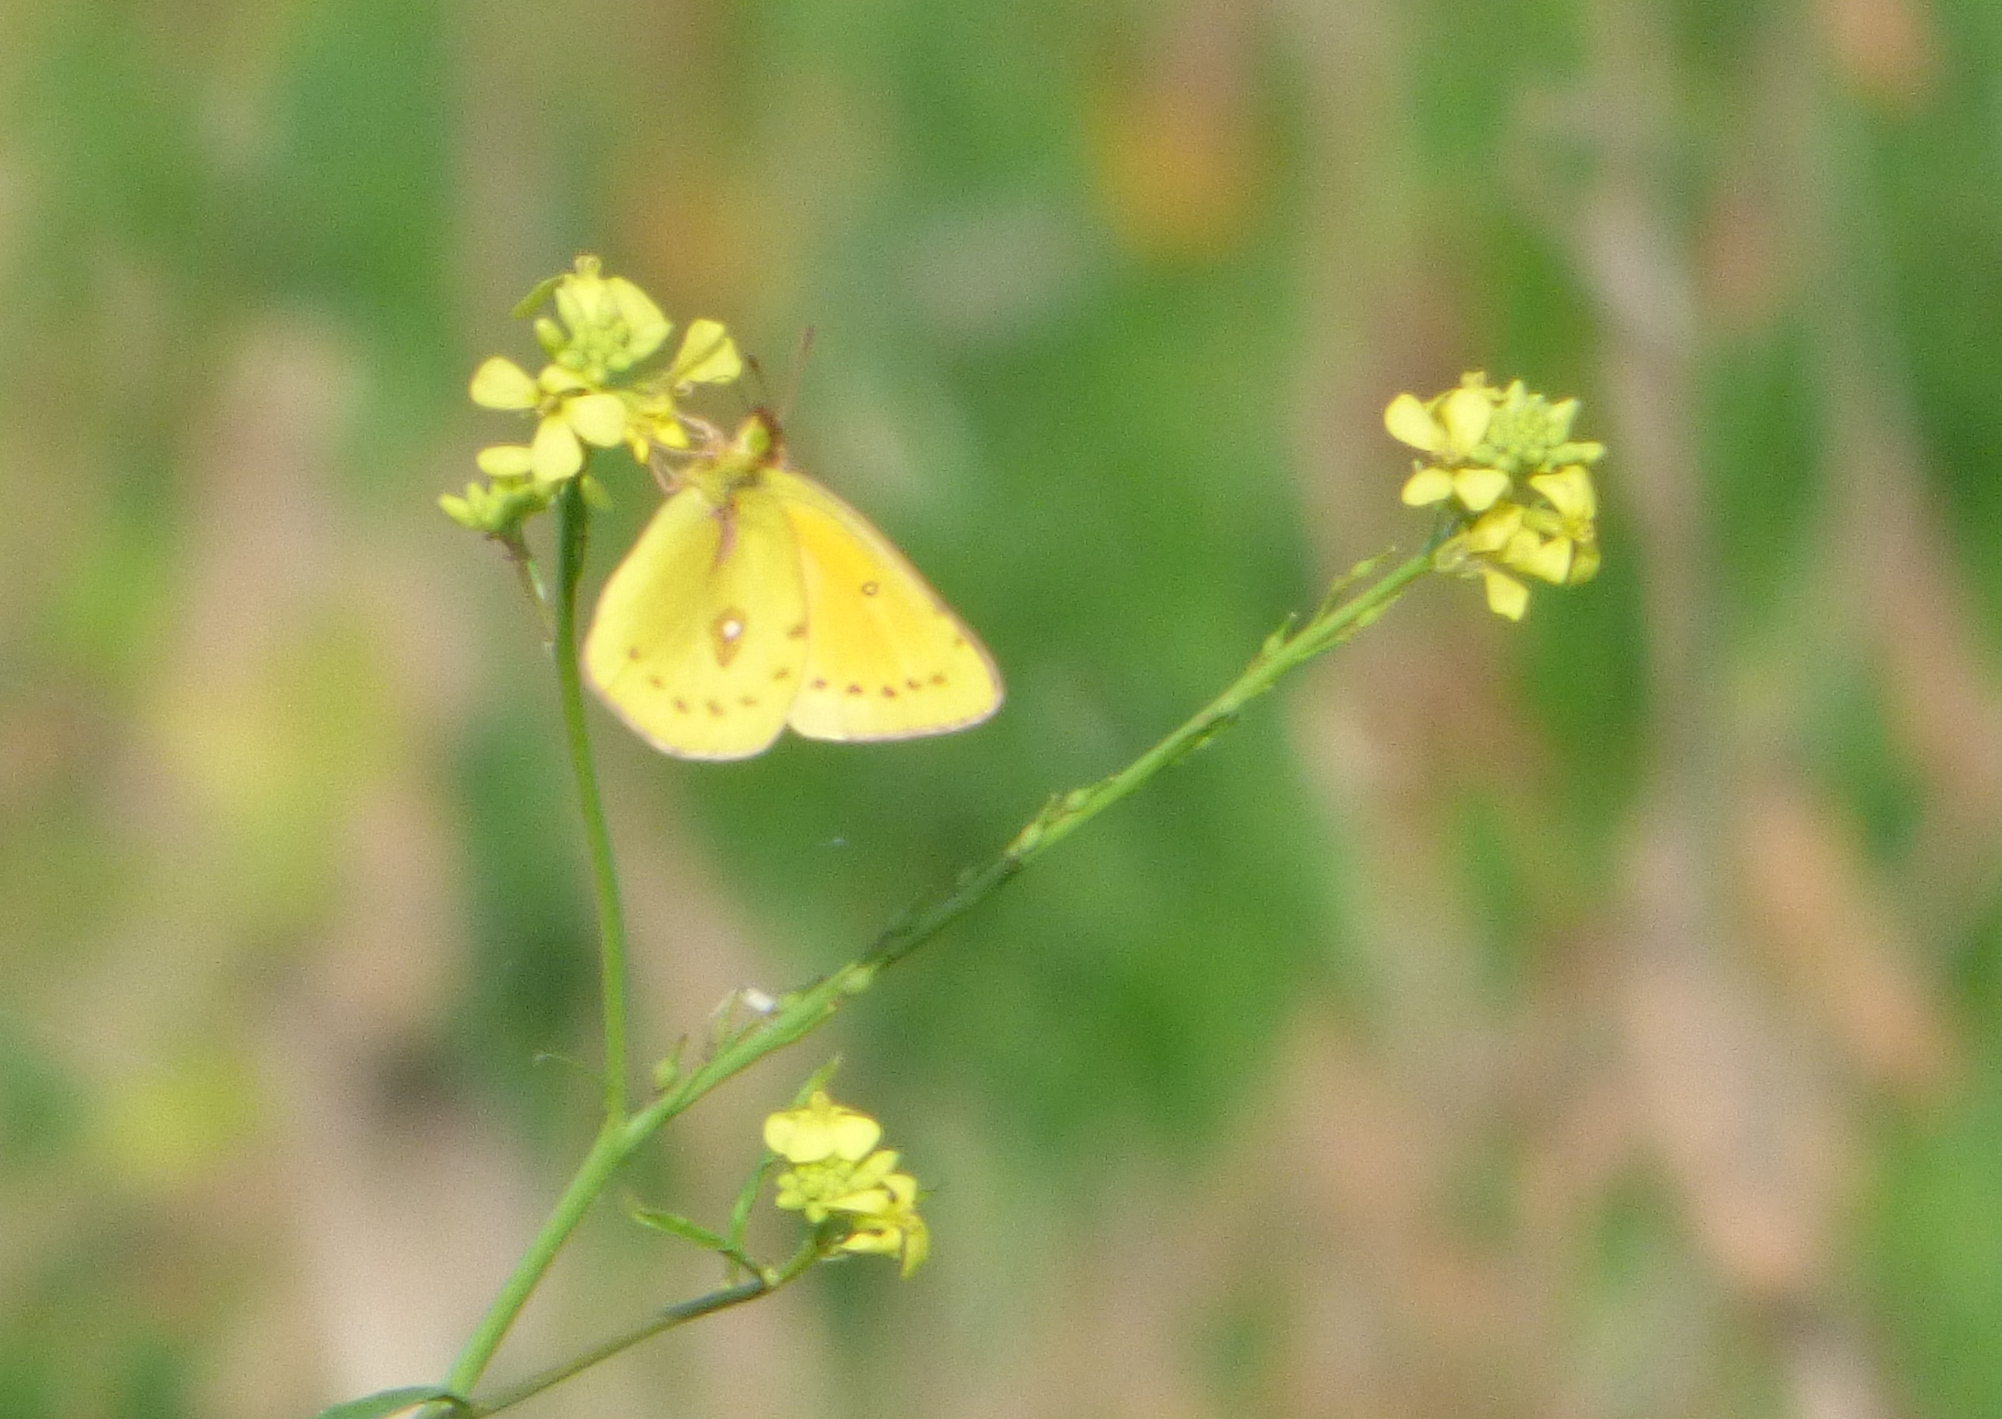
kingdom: Animalia
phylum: Arthropoda
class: Insecta
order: Lepidoptera
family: Pieridae
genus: Colias
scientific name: Colias lesbia
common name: Lesbia clouded yellow
